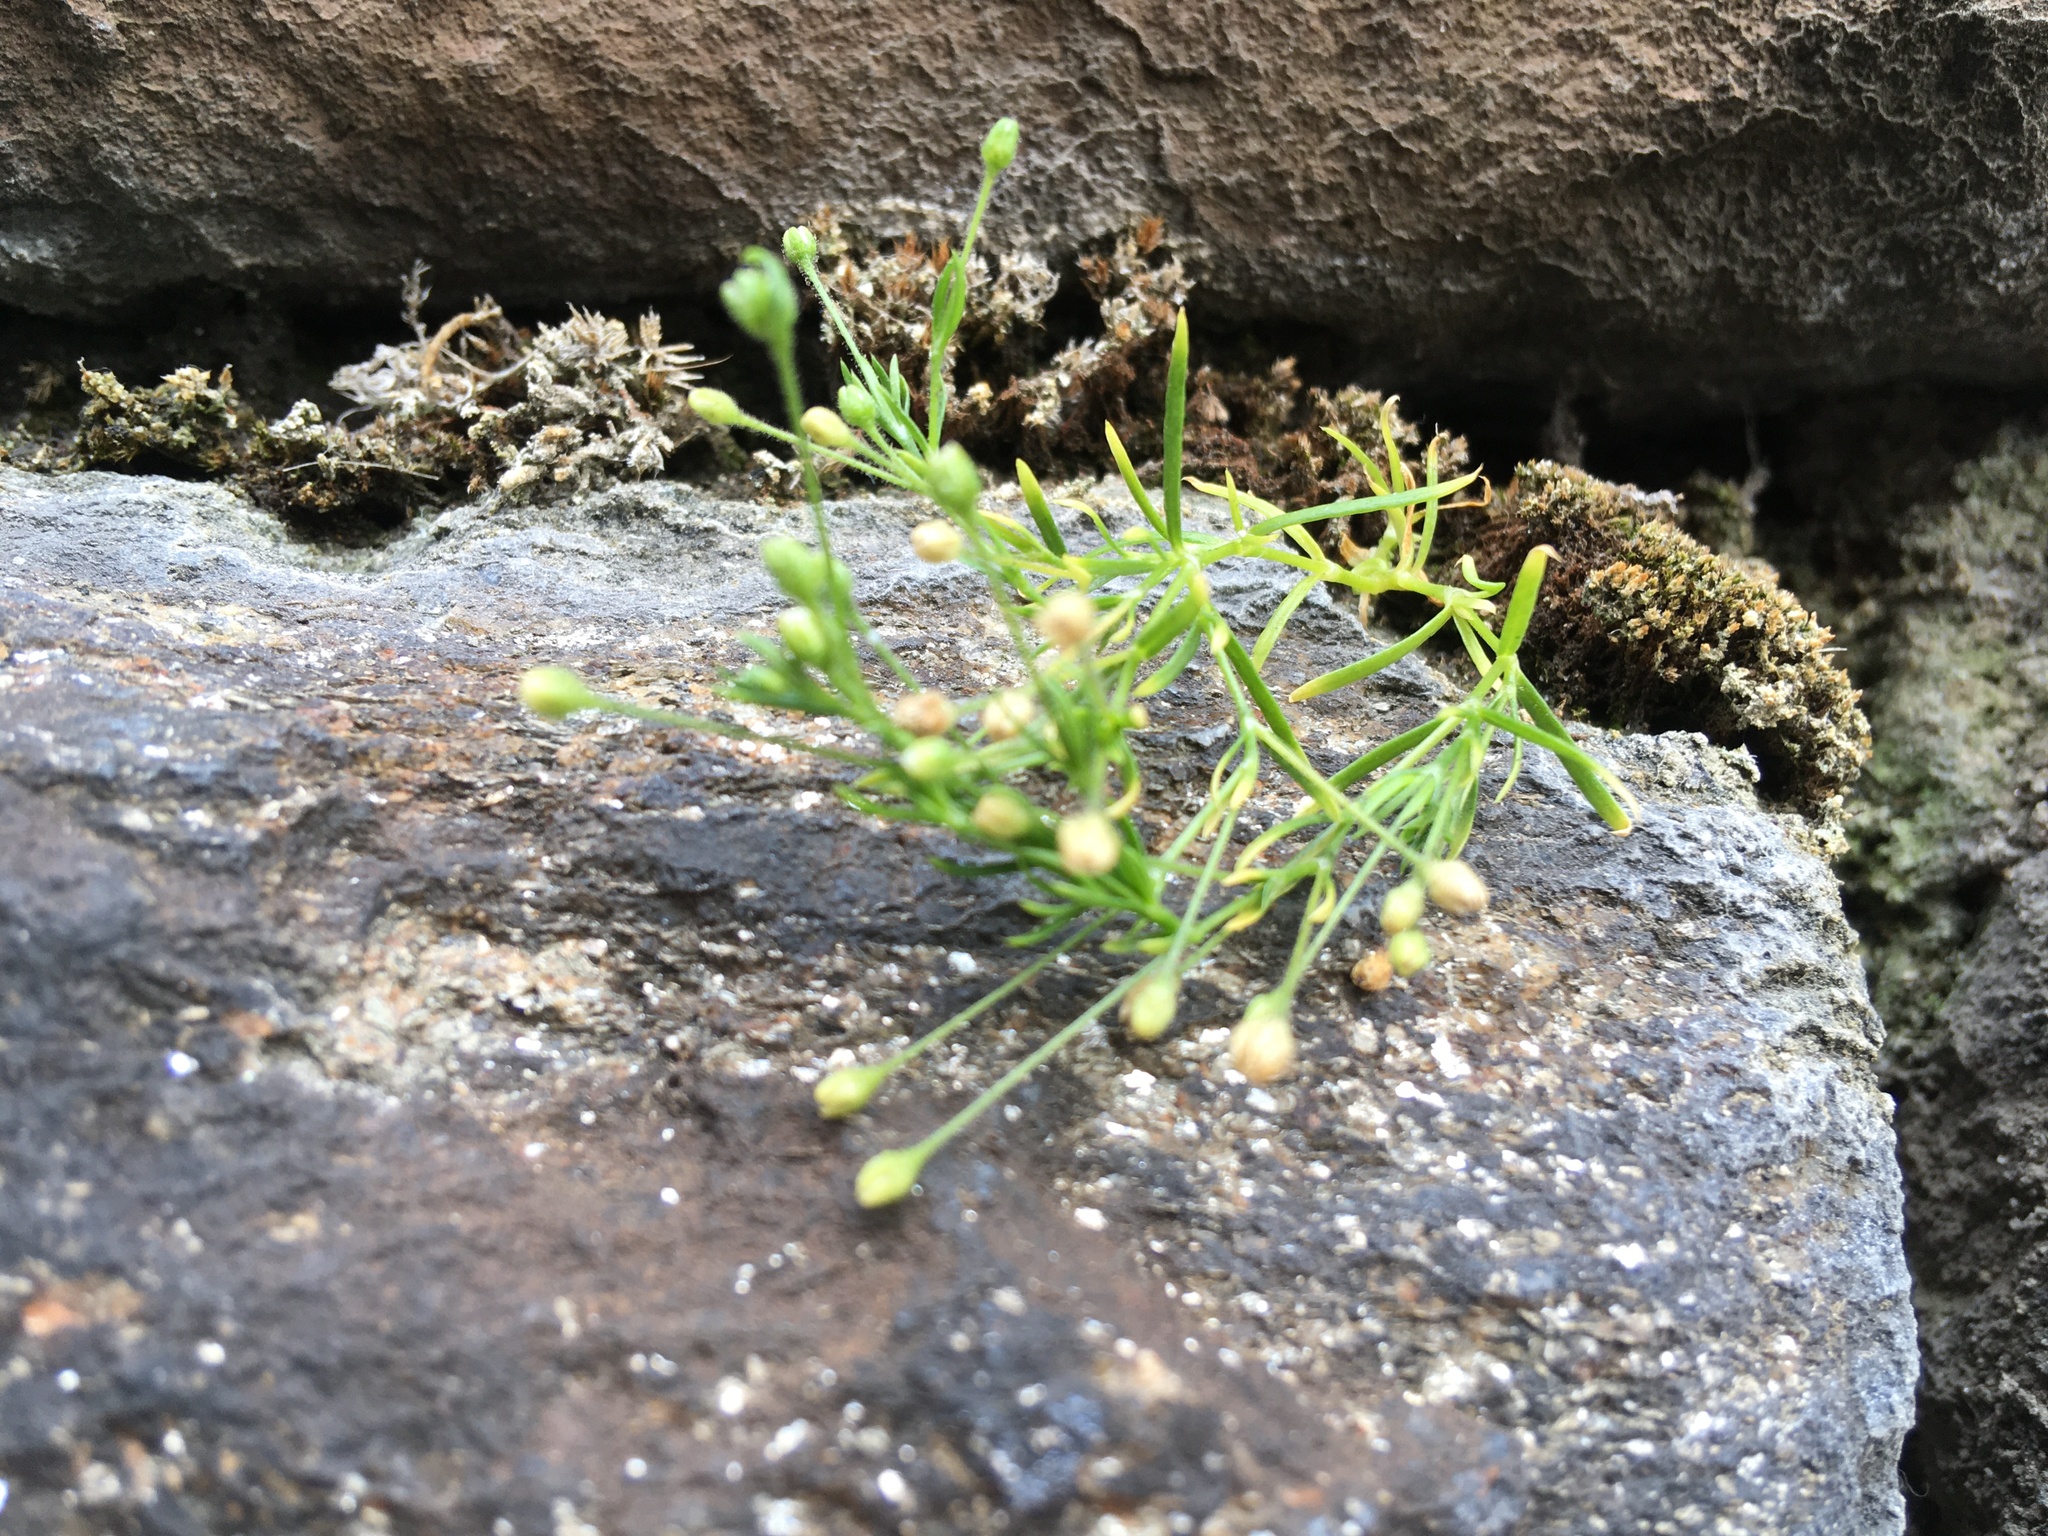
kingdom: Plantae
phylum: Tracheophyta
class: Magnoliopsida
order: Caryophyllales
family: Caryophyllaceae
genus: Sagina
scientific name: Sagina japonica
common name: Japanese pearlwort
